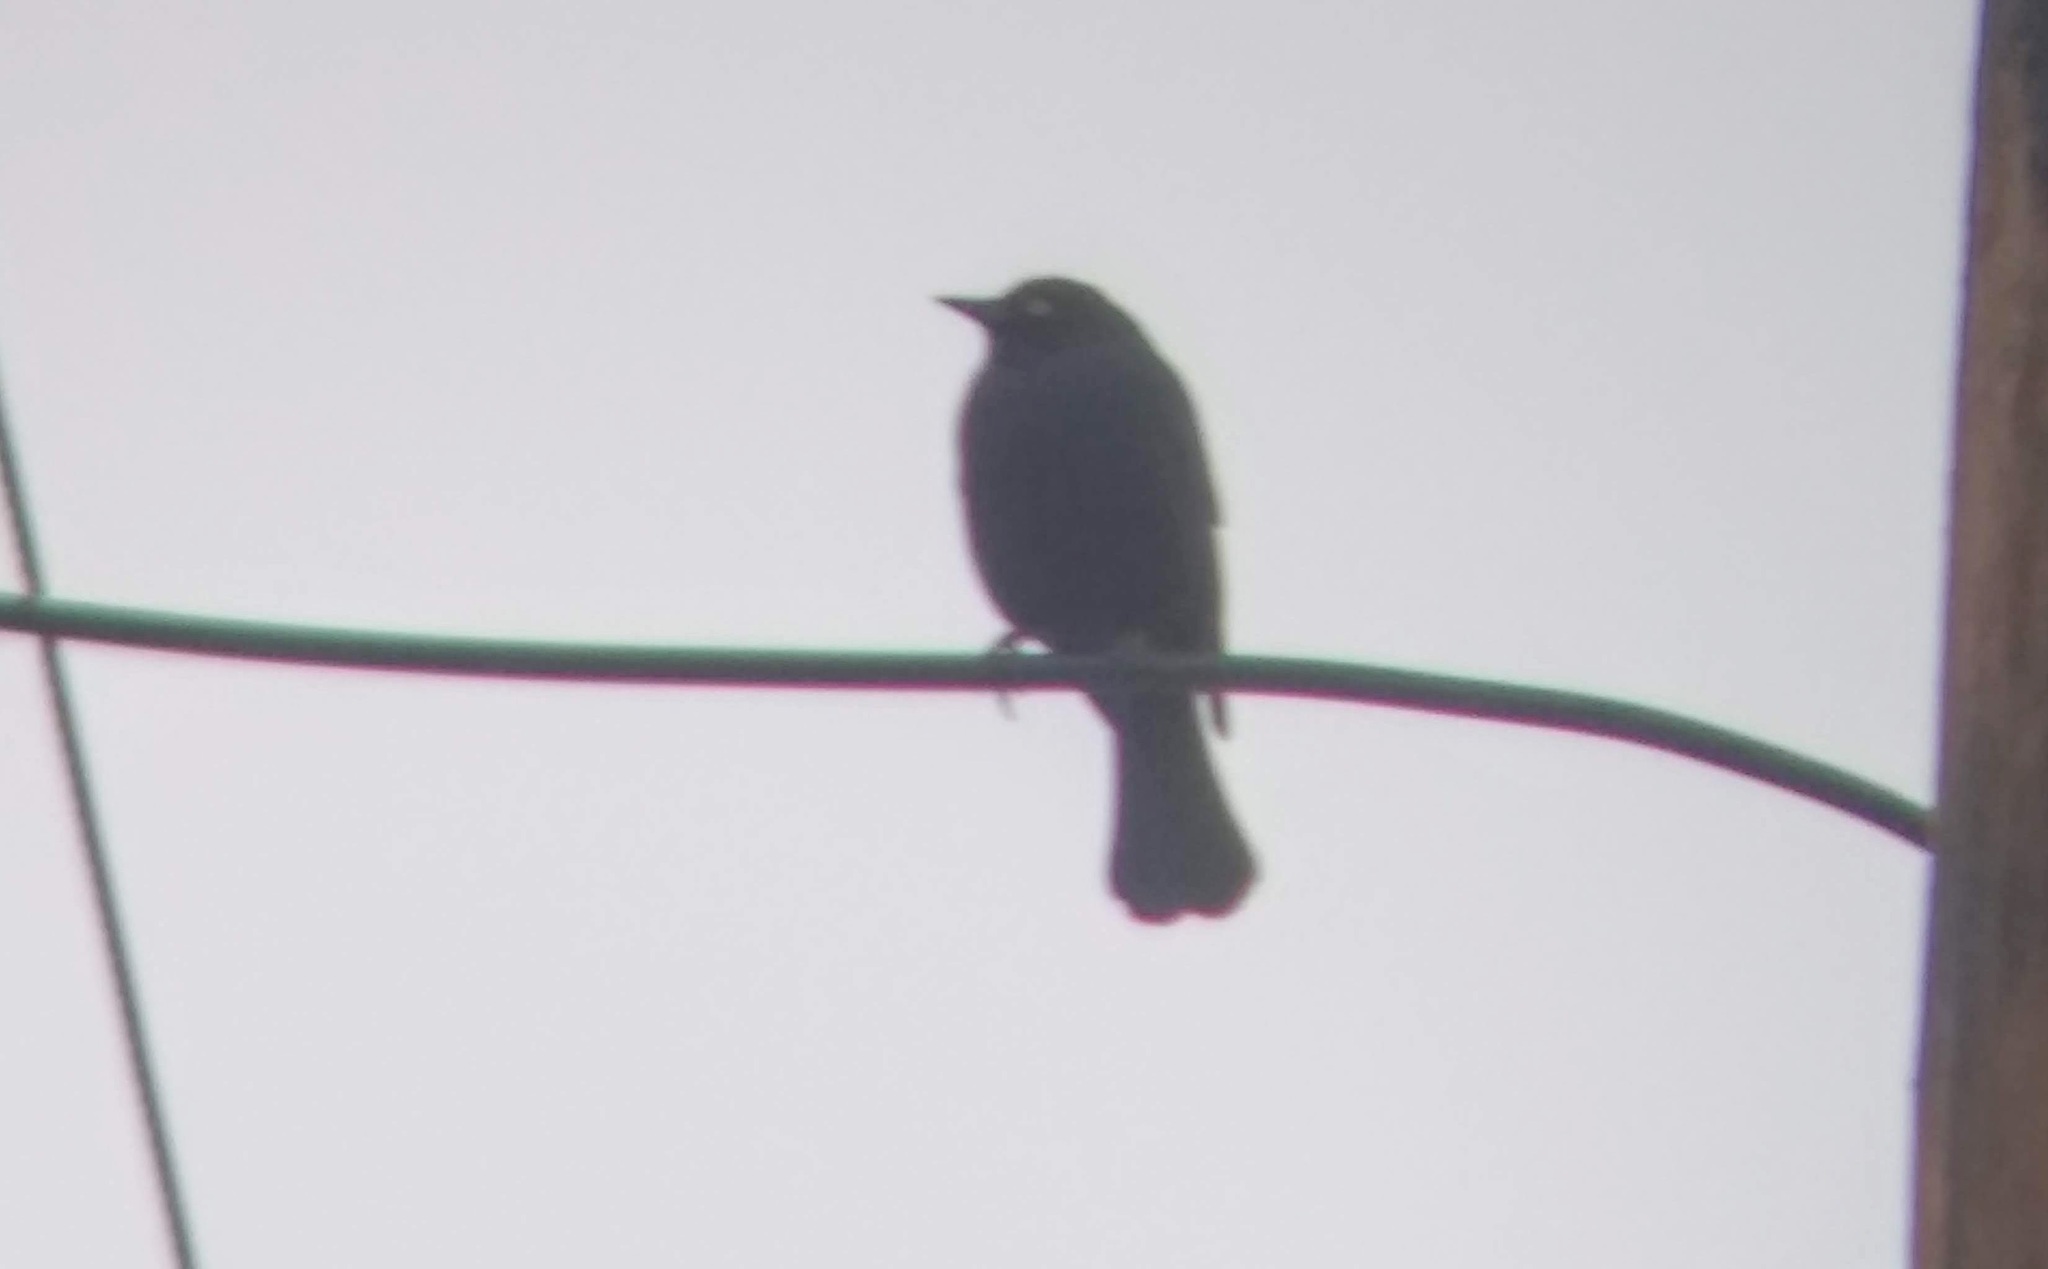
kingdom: Animalia
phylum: Chordata
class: Aves
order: Passeriformes
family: Icteridae
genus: Euphagus
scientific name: Euphagus cyanocephalus
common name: Brewer's blackbird
